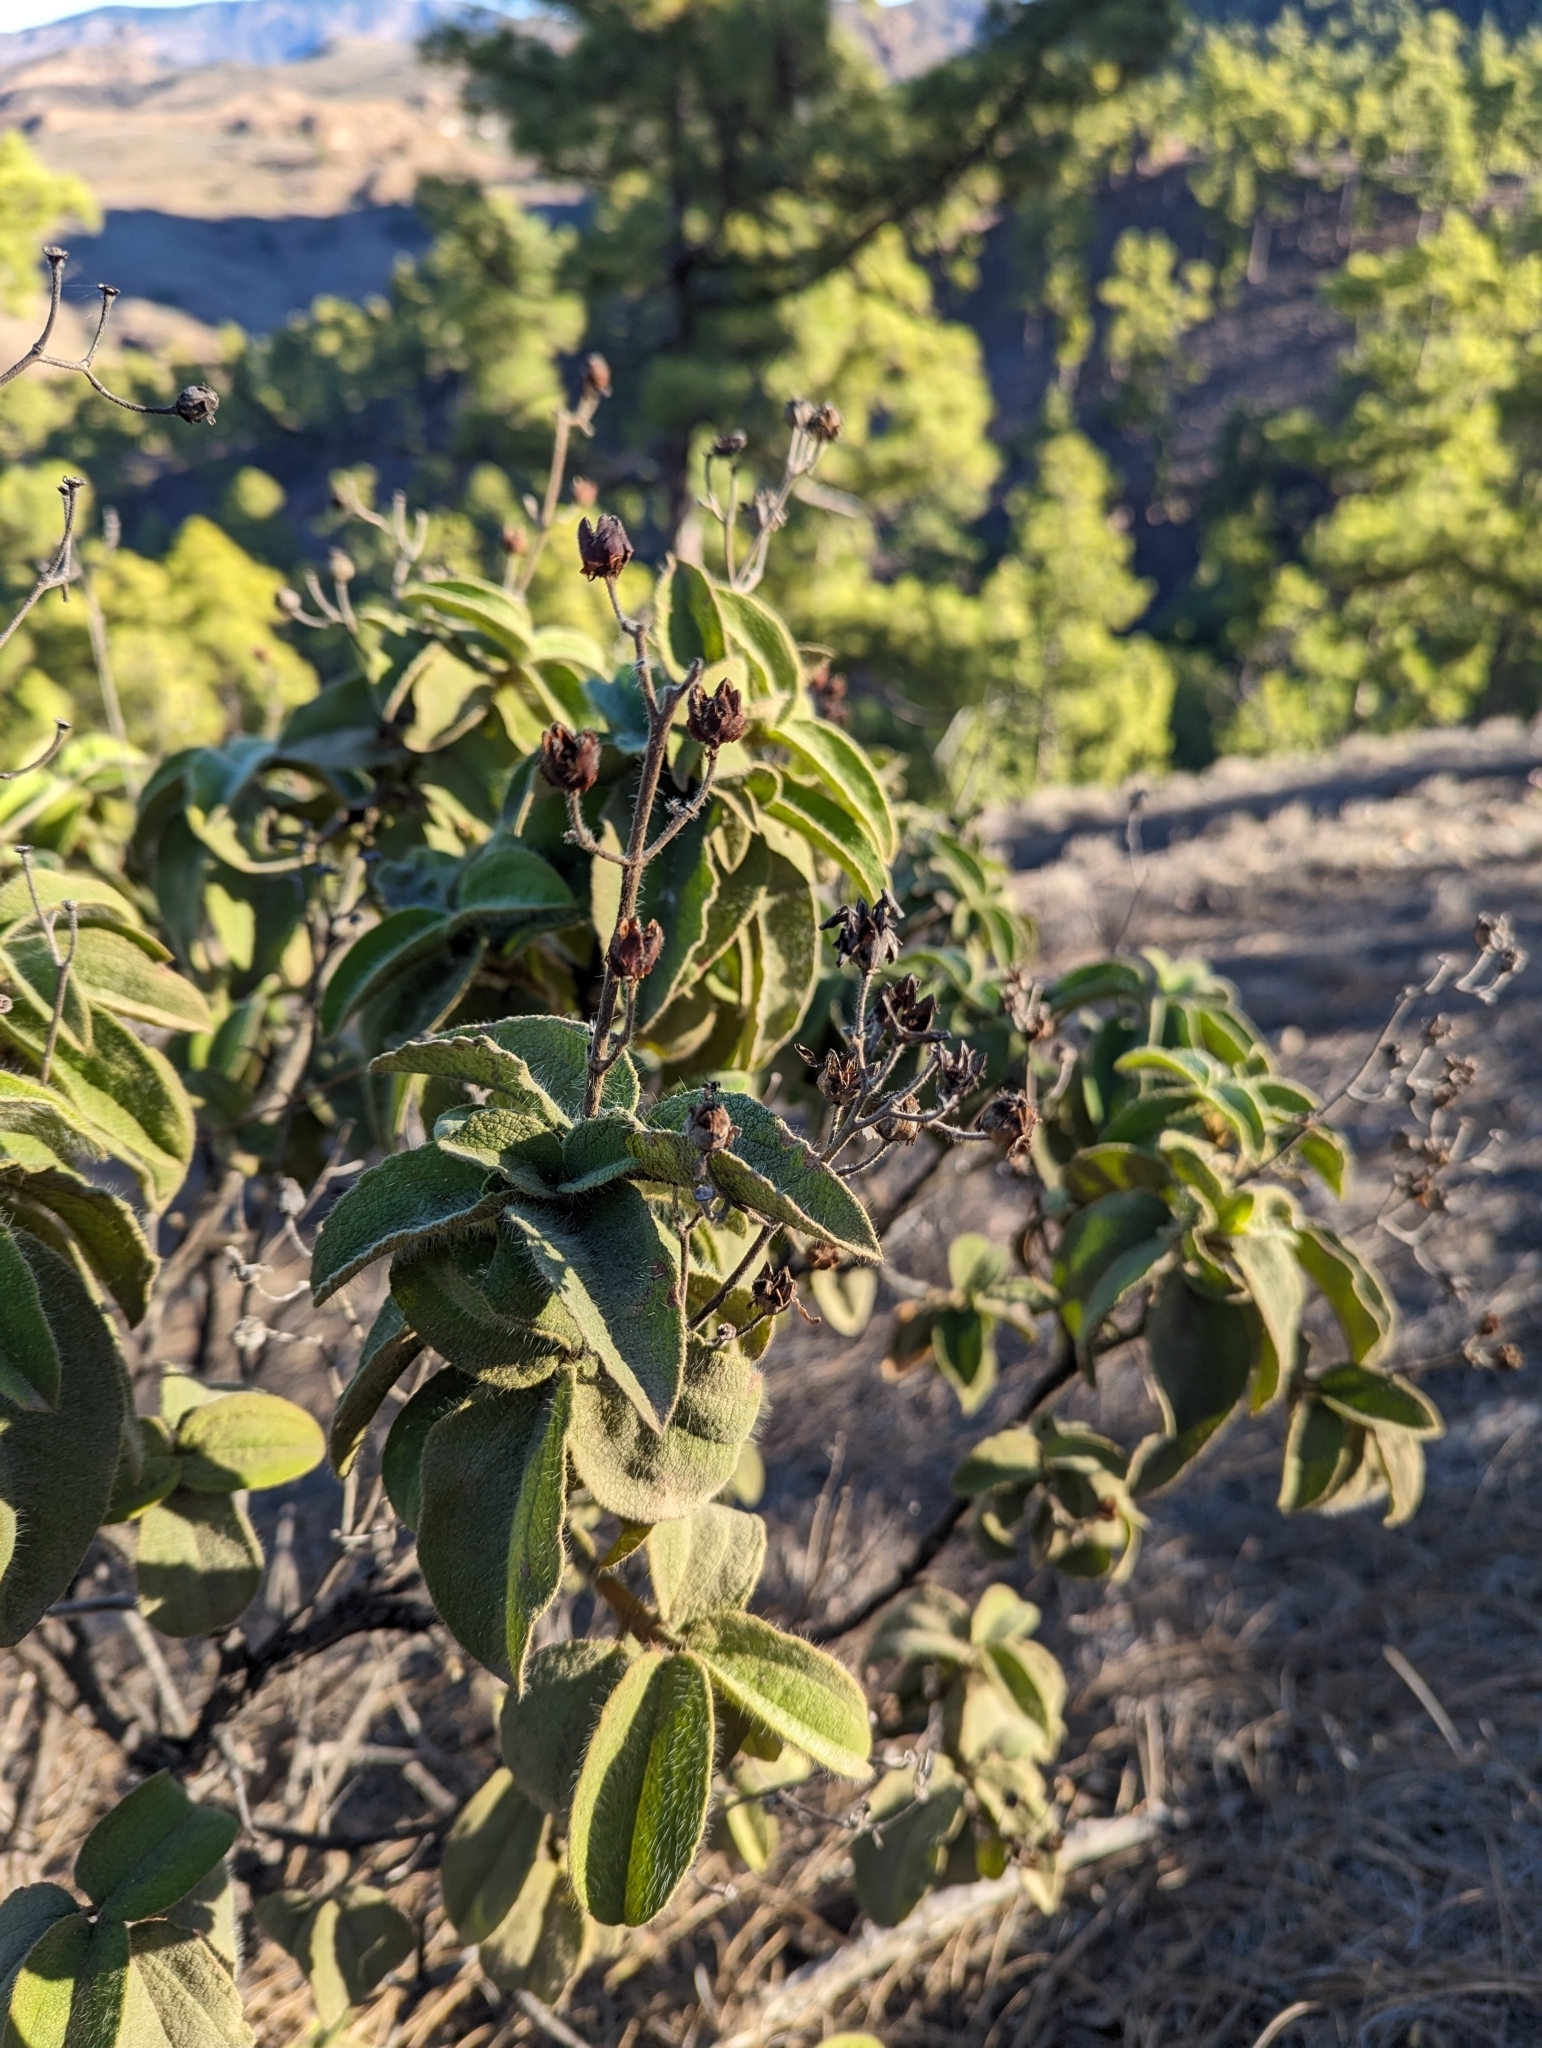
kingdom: Plantae
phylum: Tracheophyta
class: Magnoliopsida
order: Malvales
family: Cistaceae
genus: Cistus
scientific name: Cistus horrens
